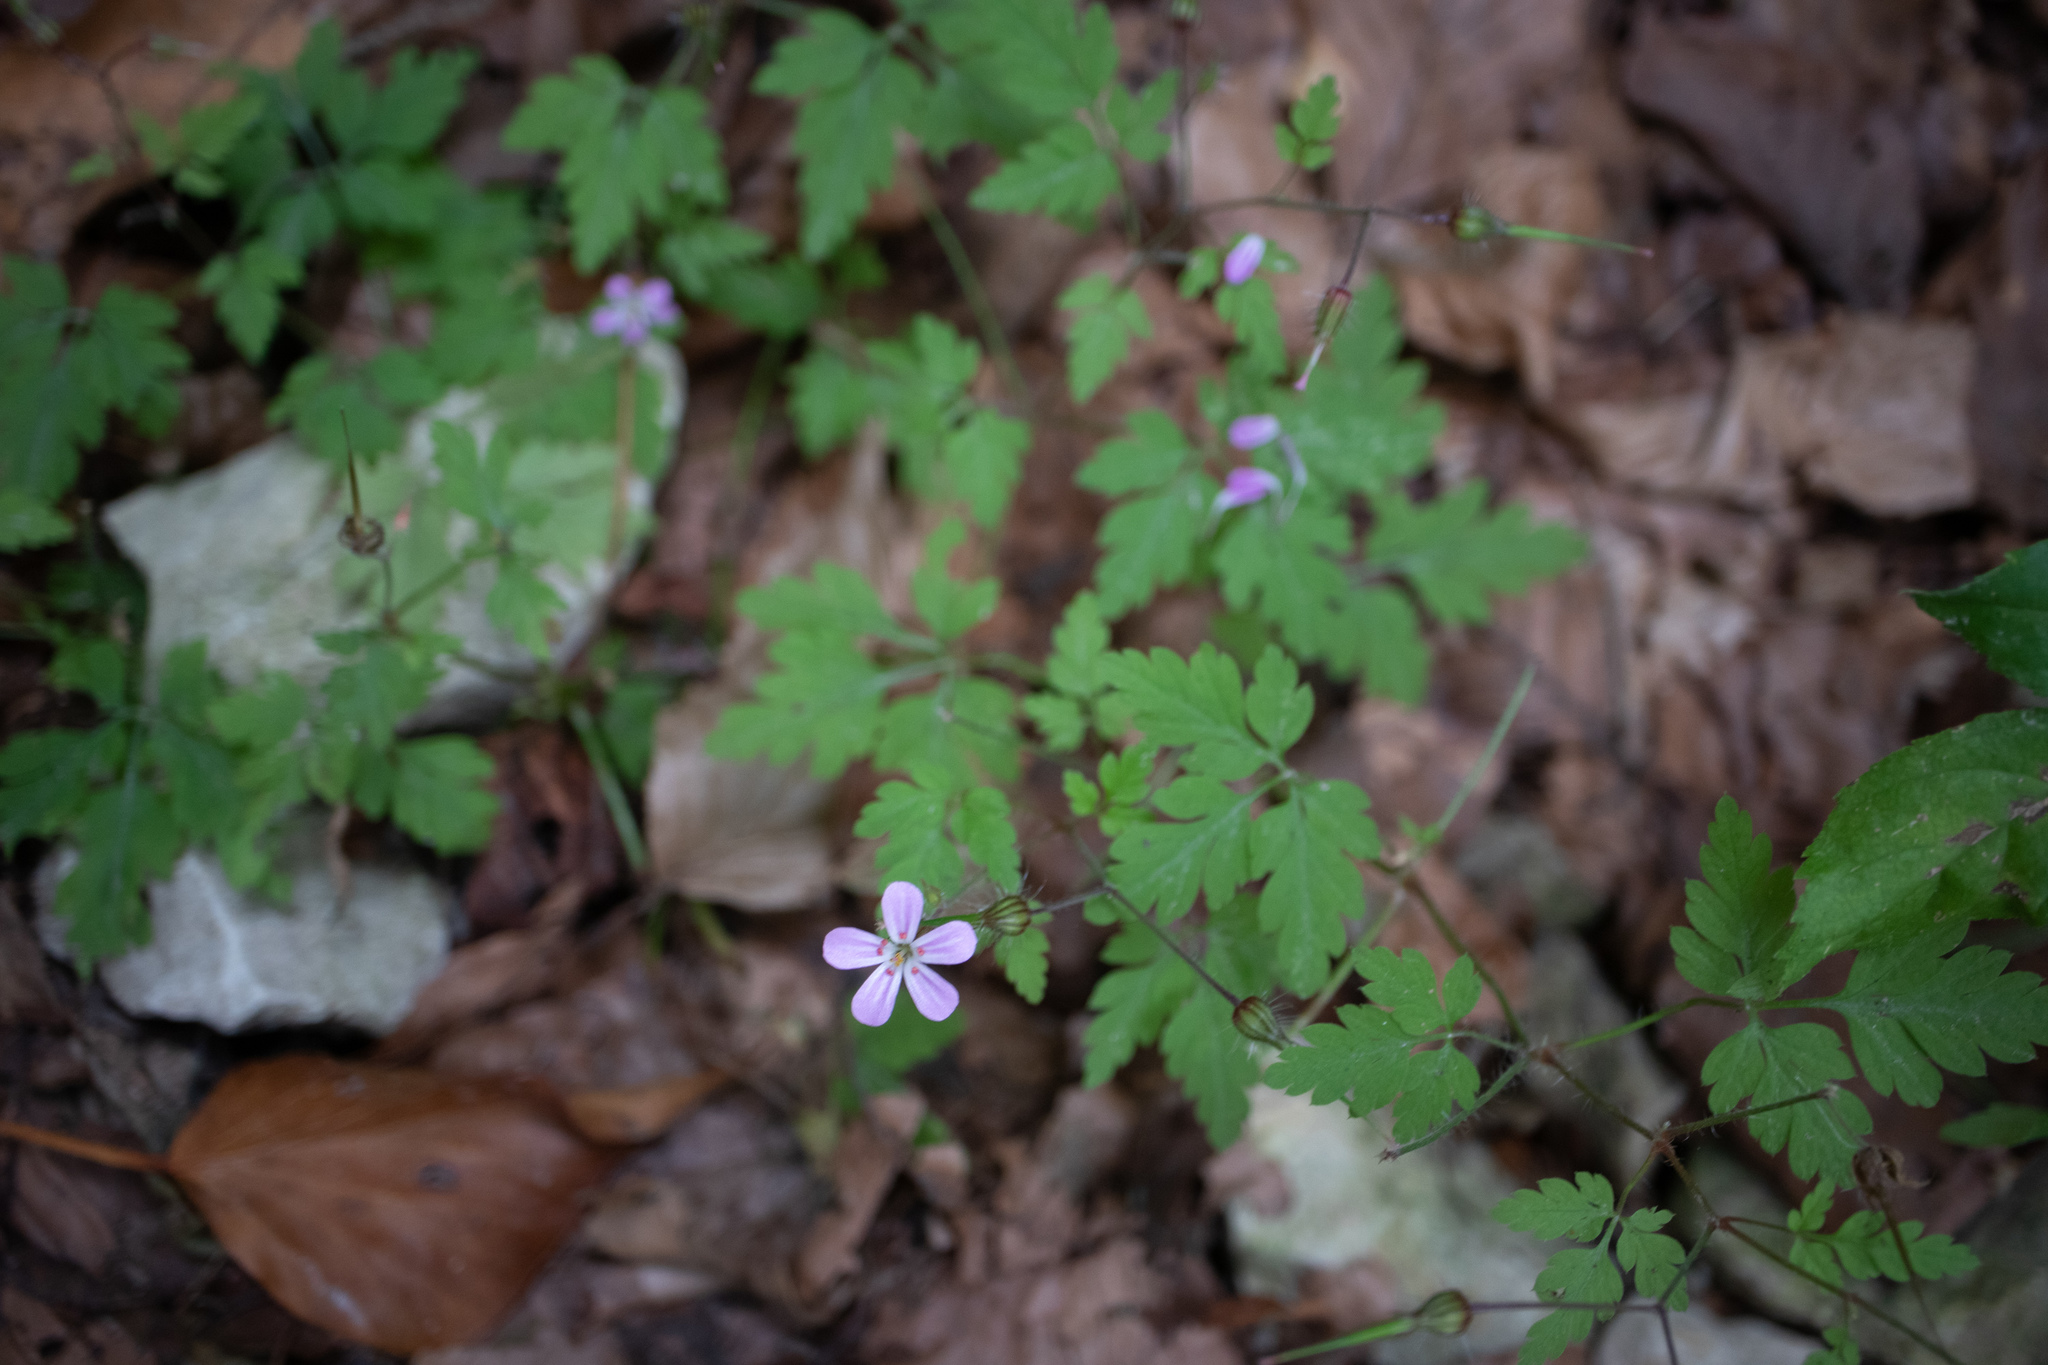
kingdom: Plantae
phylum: Tracheophyta
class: Magnoliopsida
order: Geraniales
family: Geraniaceae
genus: Geranium
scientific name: Geranium robertianum
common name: Herb-robert
